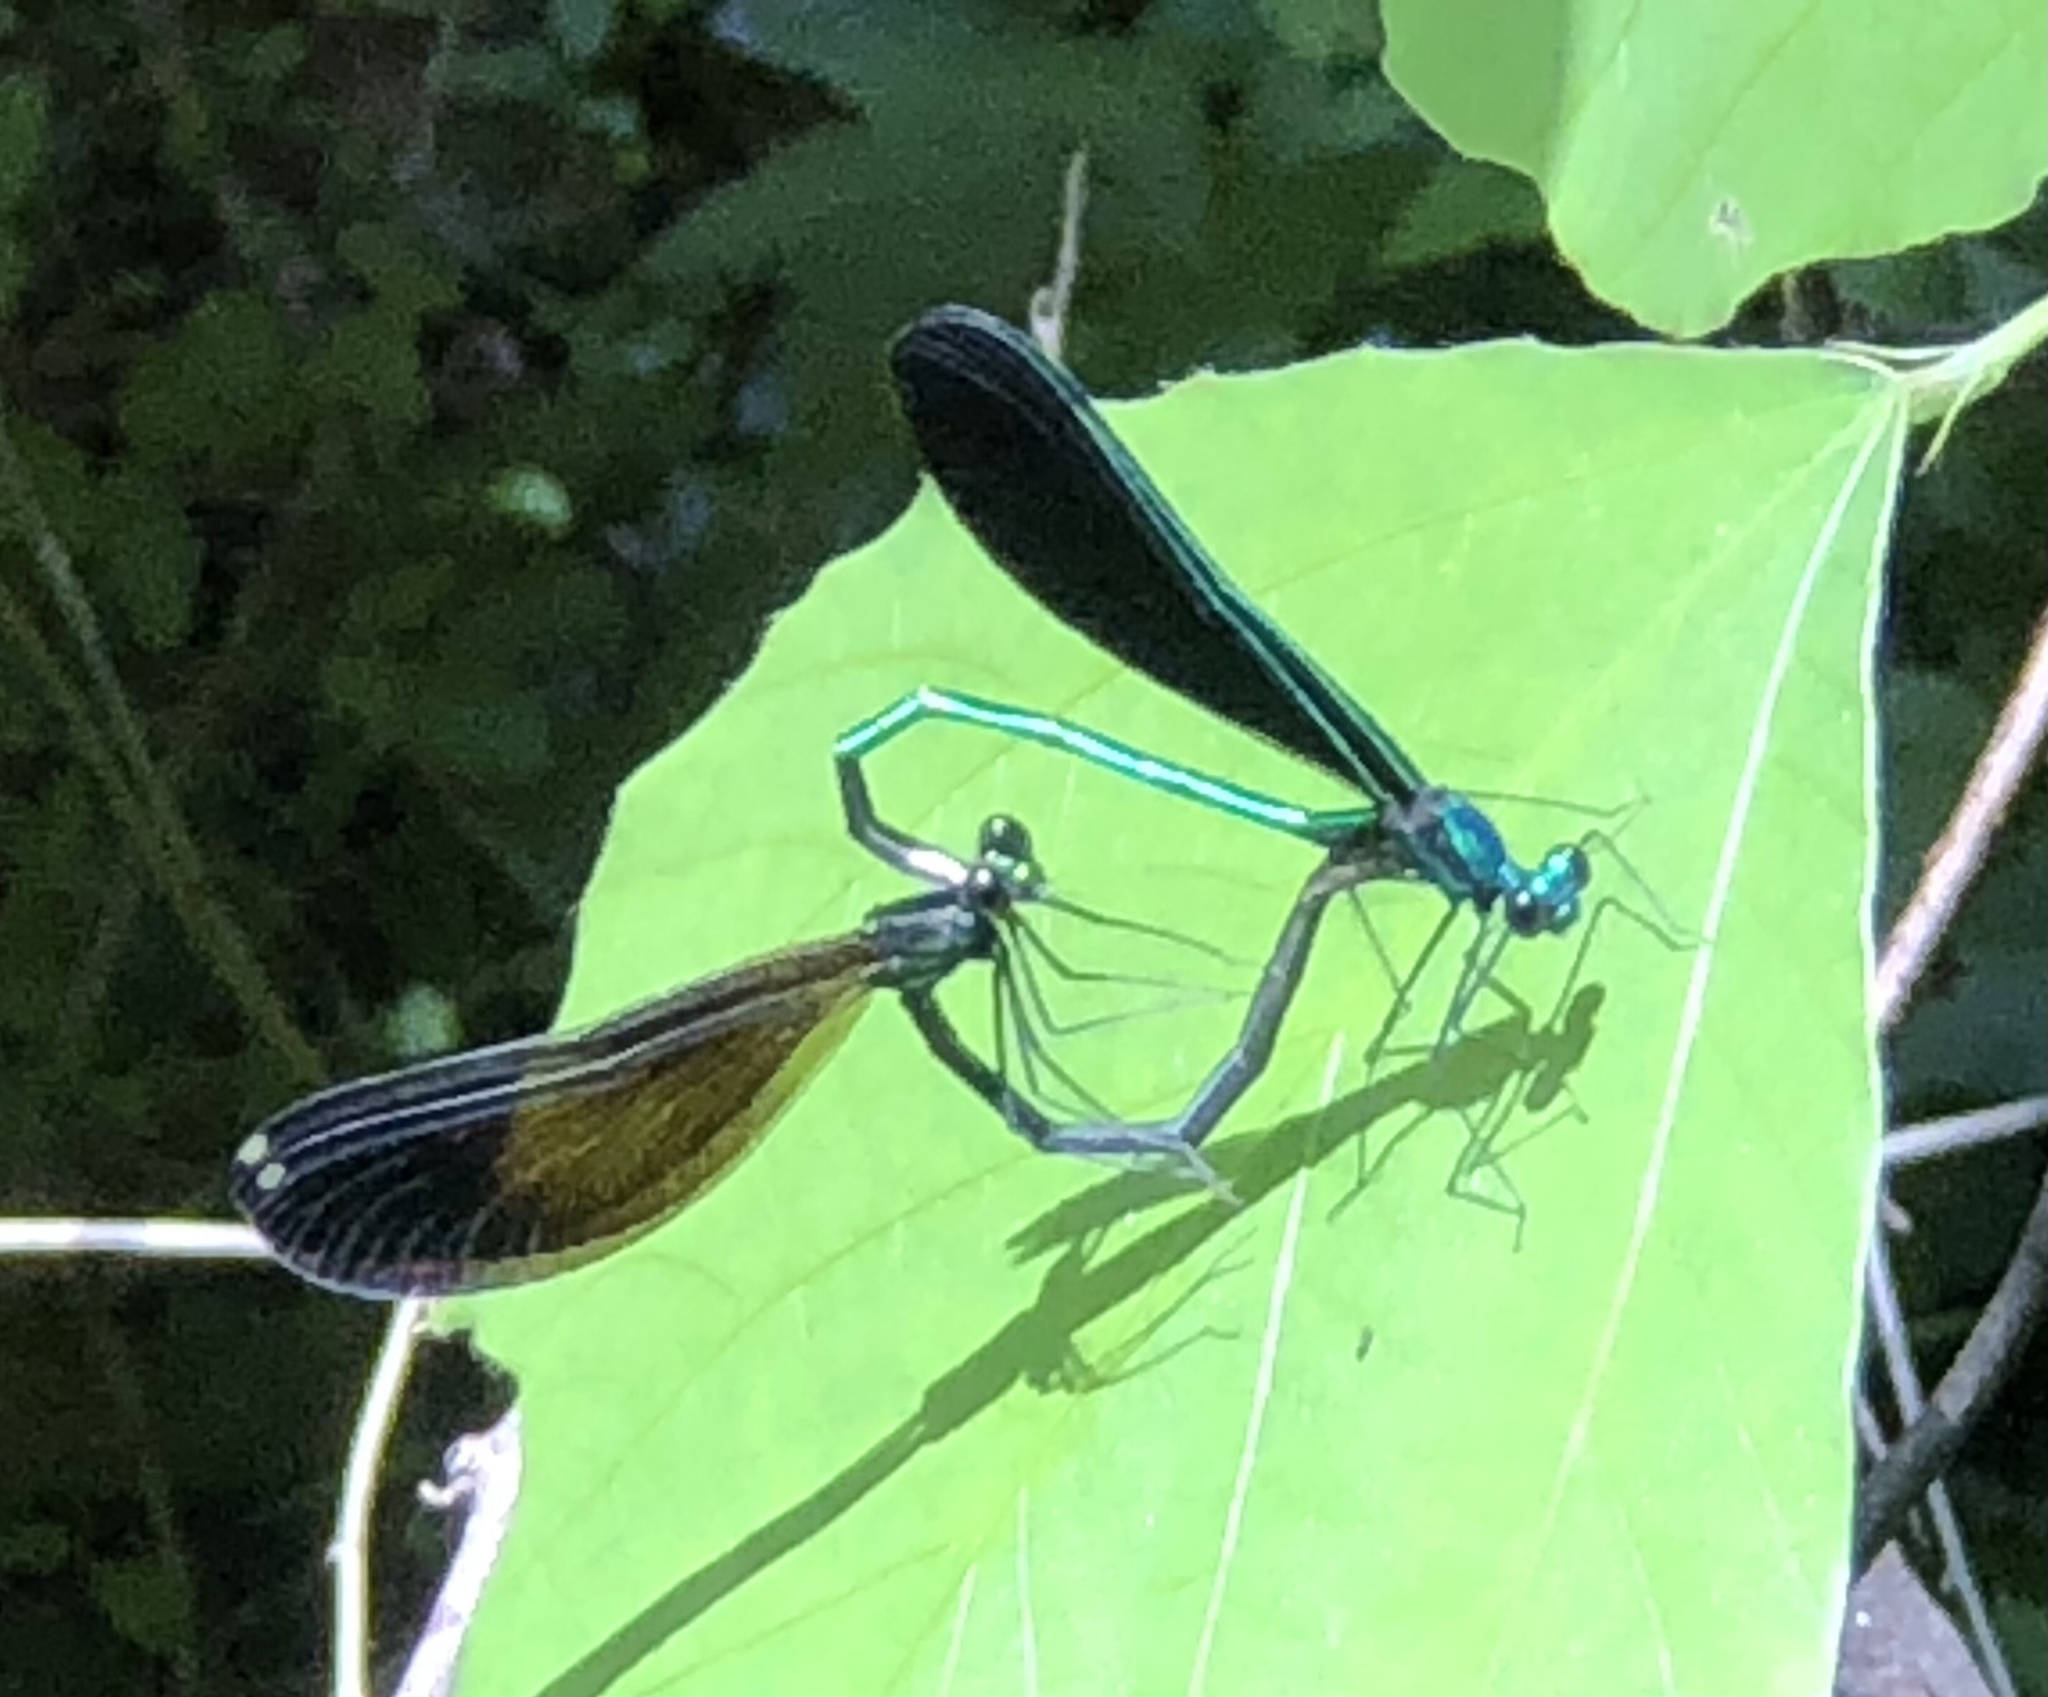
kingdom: Animalia
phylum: Arthropoda
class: Insecta
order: Odonata
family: Calopterygidae
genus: Calopteryx
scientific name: Calopteryx maculata
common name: Ebony jewelwing
